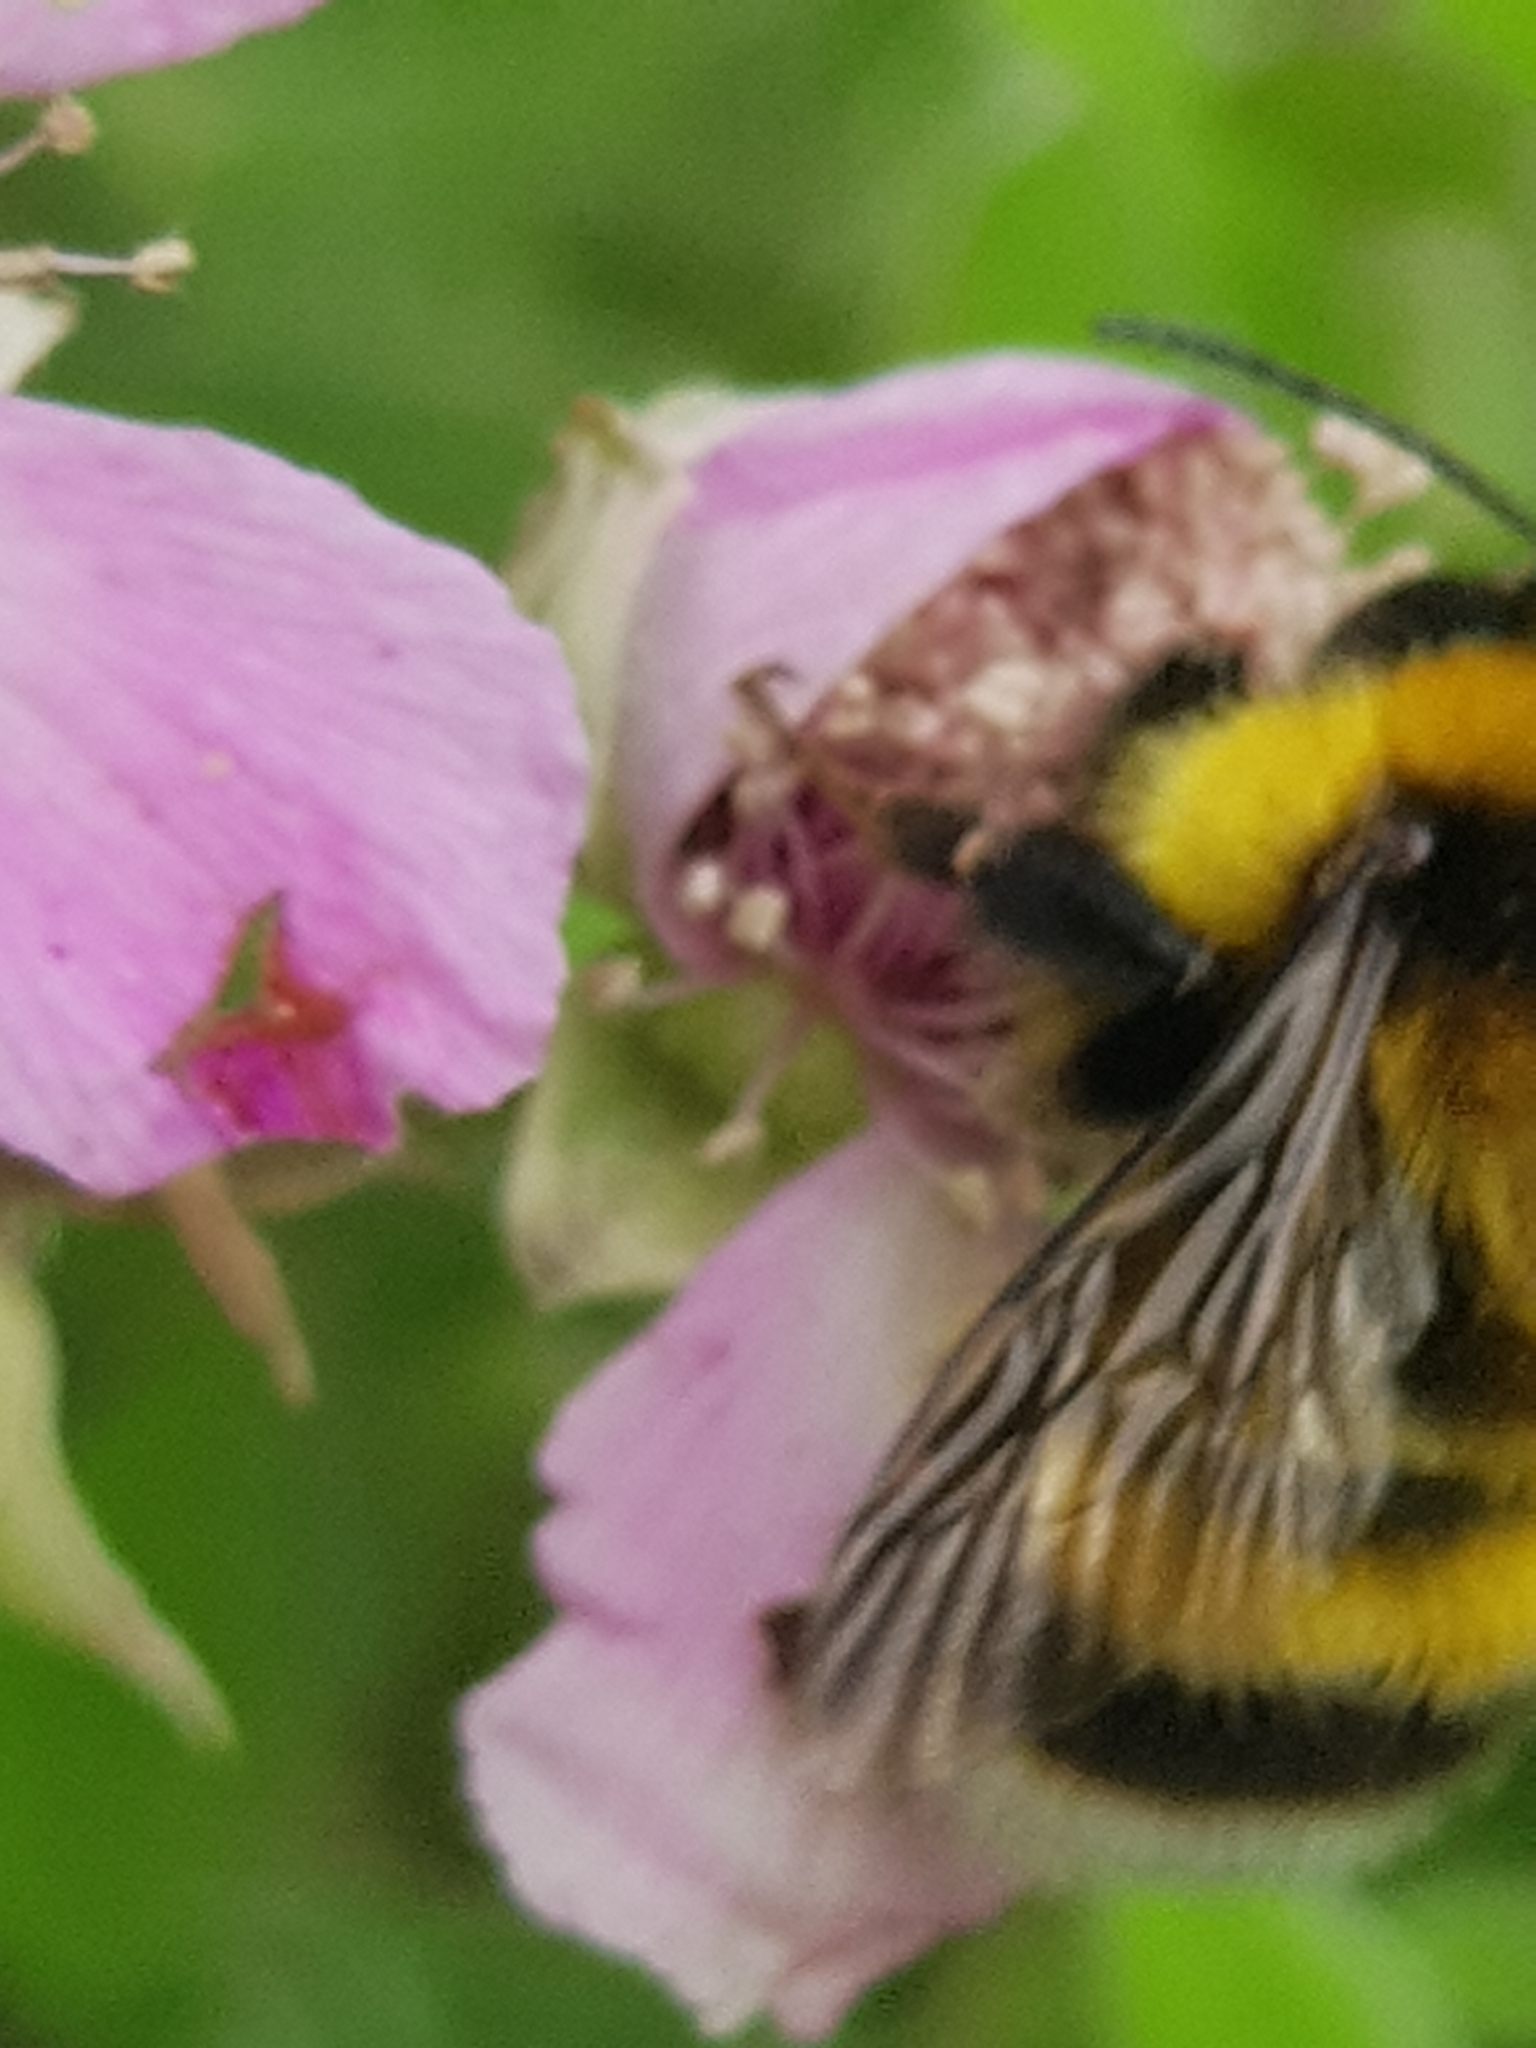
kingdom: Animalia
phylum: Arthropoda
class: Insecta
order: Hymenoptera
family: Apidae
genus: Bombus
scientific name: Bombus ruderatus
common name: Large garden bumblebee
